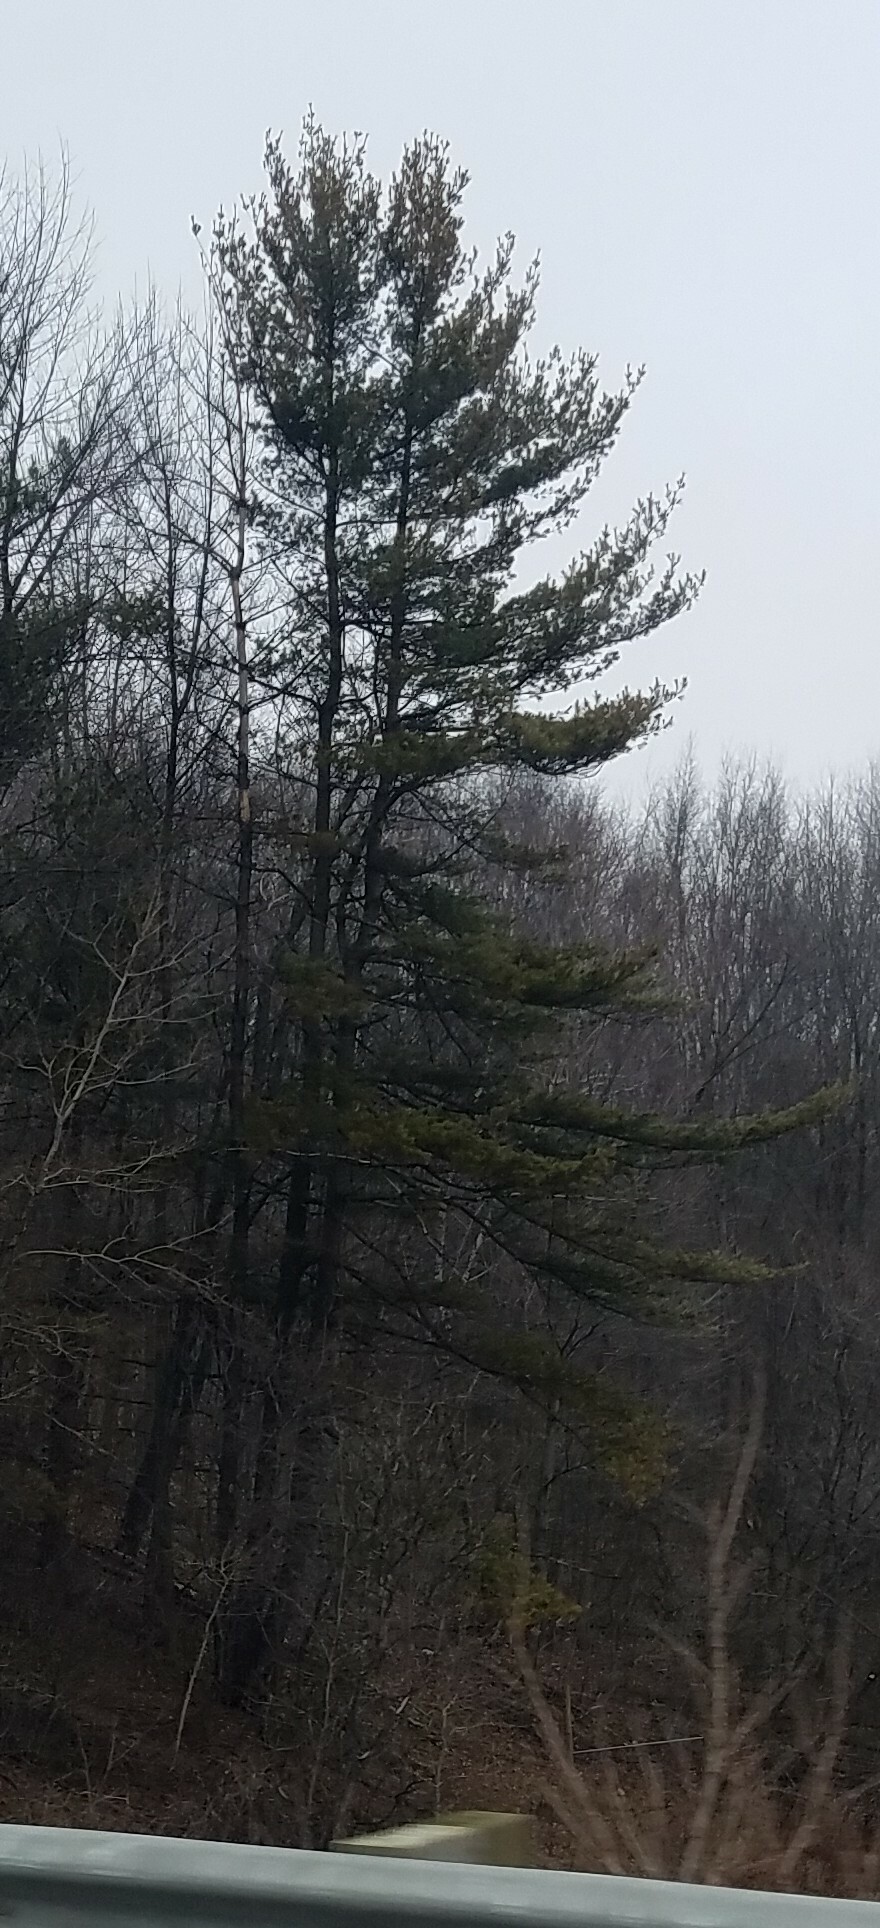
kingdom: Plantae
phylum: Tracheophyta
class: Pinopsida
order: Pinales
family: Pinaceae
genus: Pinus
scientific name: Pinus strobus
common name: Weymouth pine
